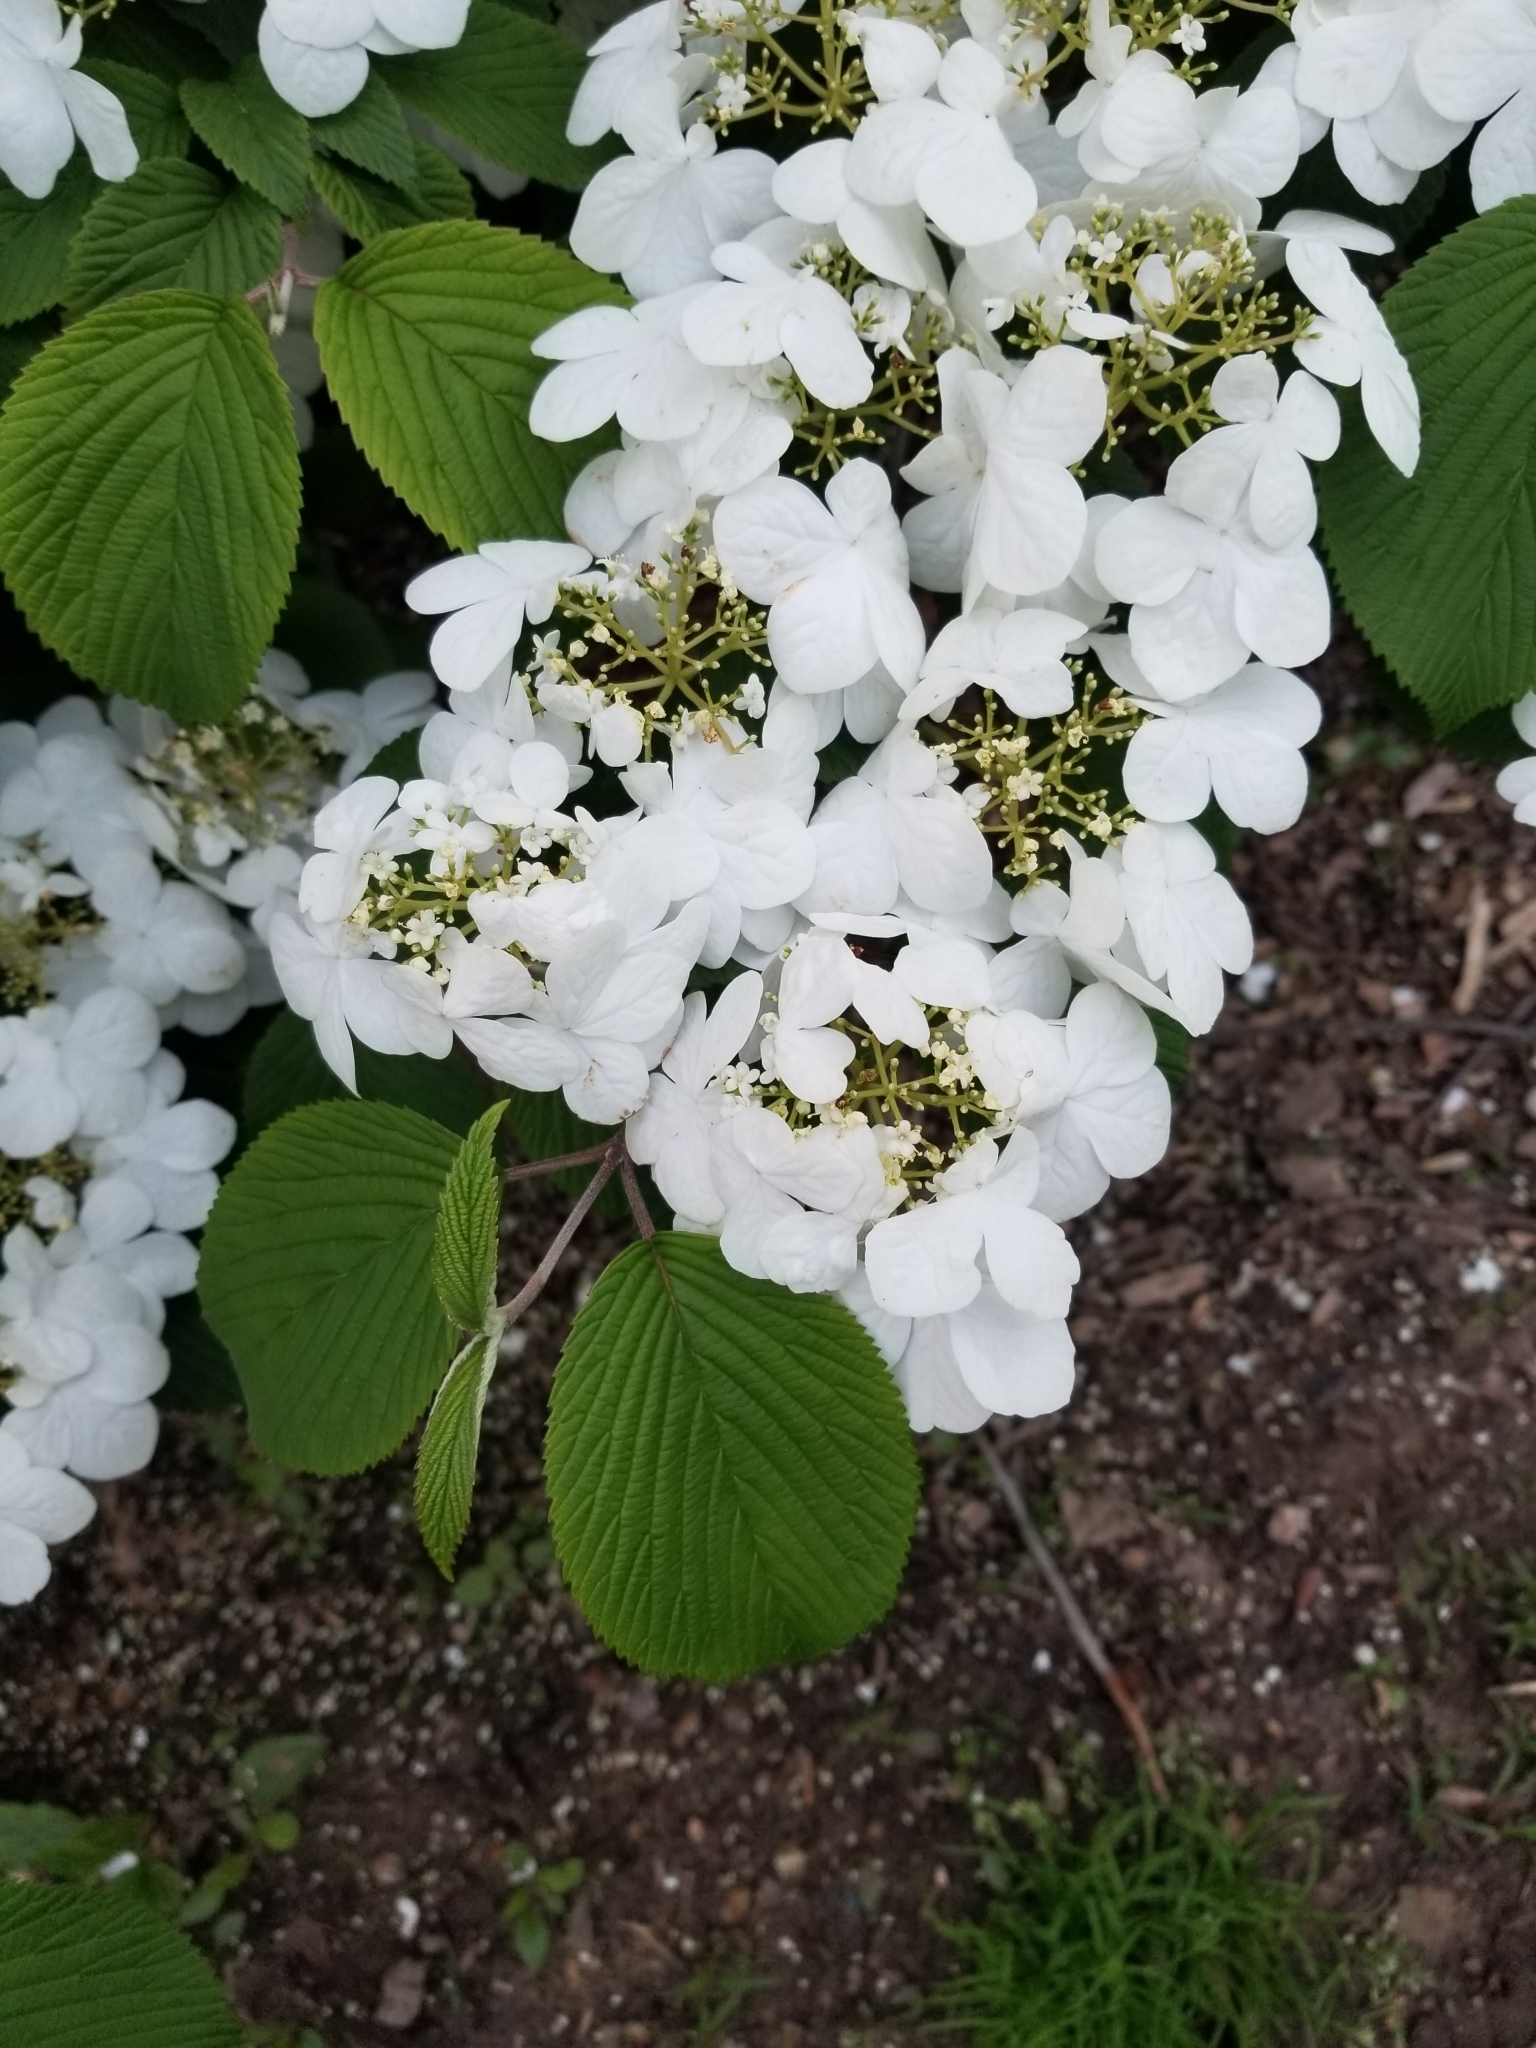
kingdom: Plantae
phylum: Tracheophyta
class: Magnoliopsida
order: Dipsacales
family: Viburnaceae
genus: Viburnum
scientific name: Viburnum plicatum
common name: Japanese snowball
